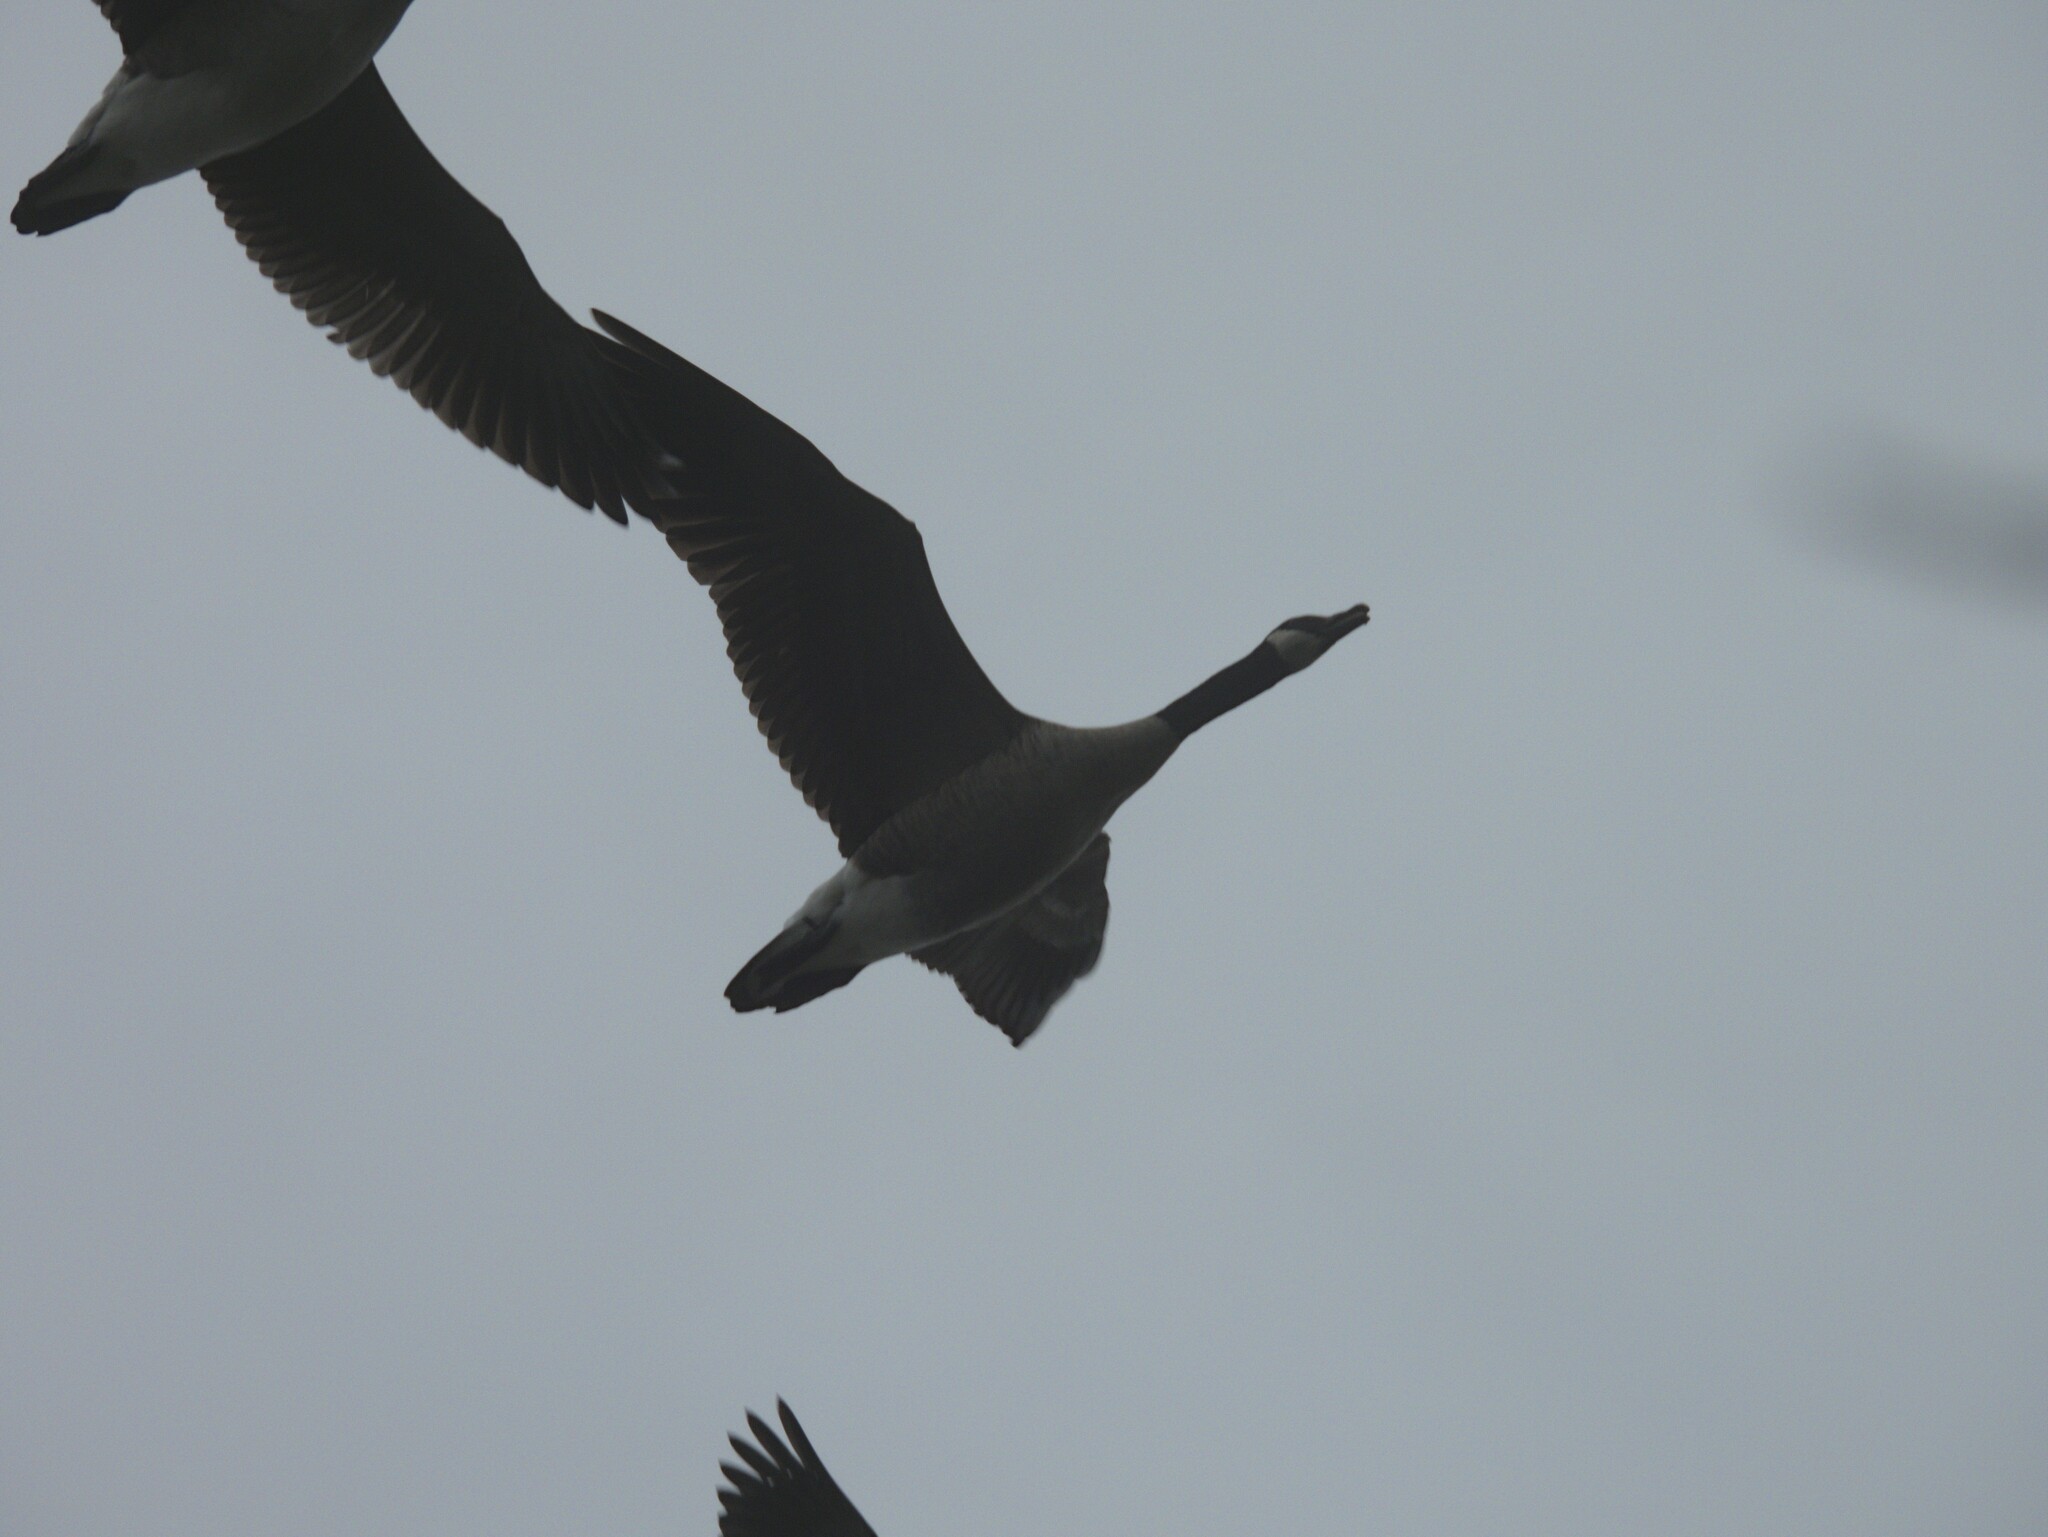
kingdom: Animalia
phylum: Chordata
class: Aves
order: Anseriformes
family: Anatidae
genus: Branta
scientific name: Branta canadensis
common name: Canada goose
